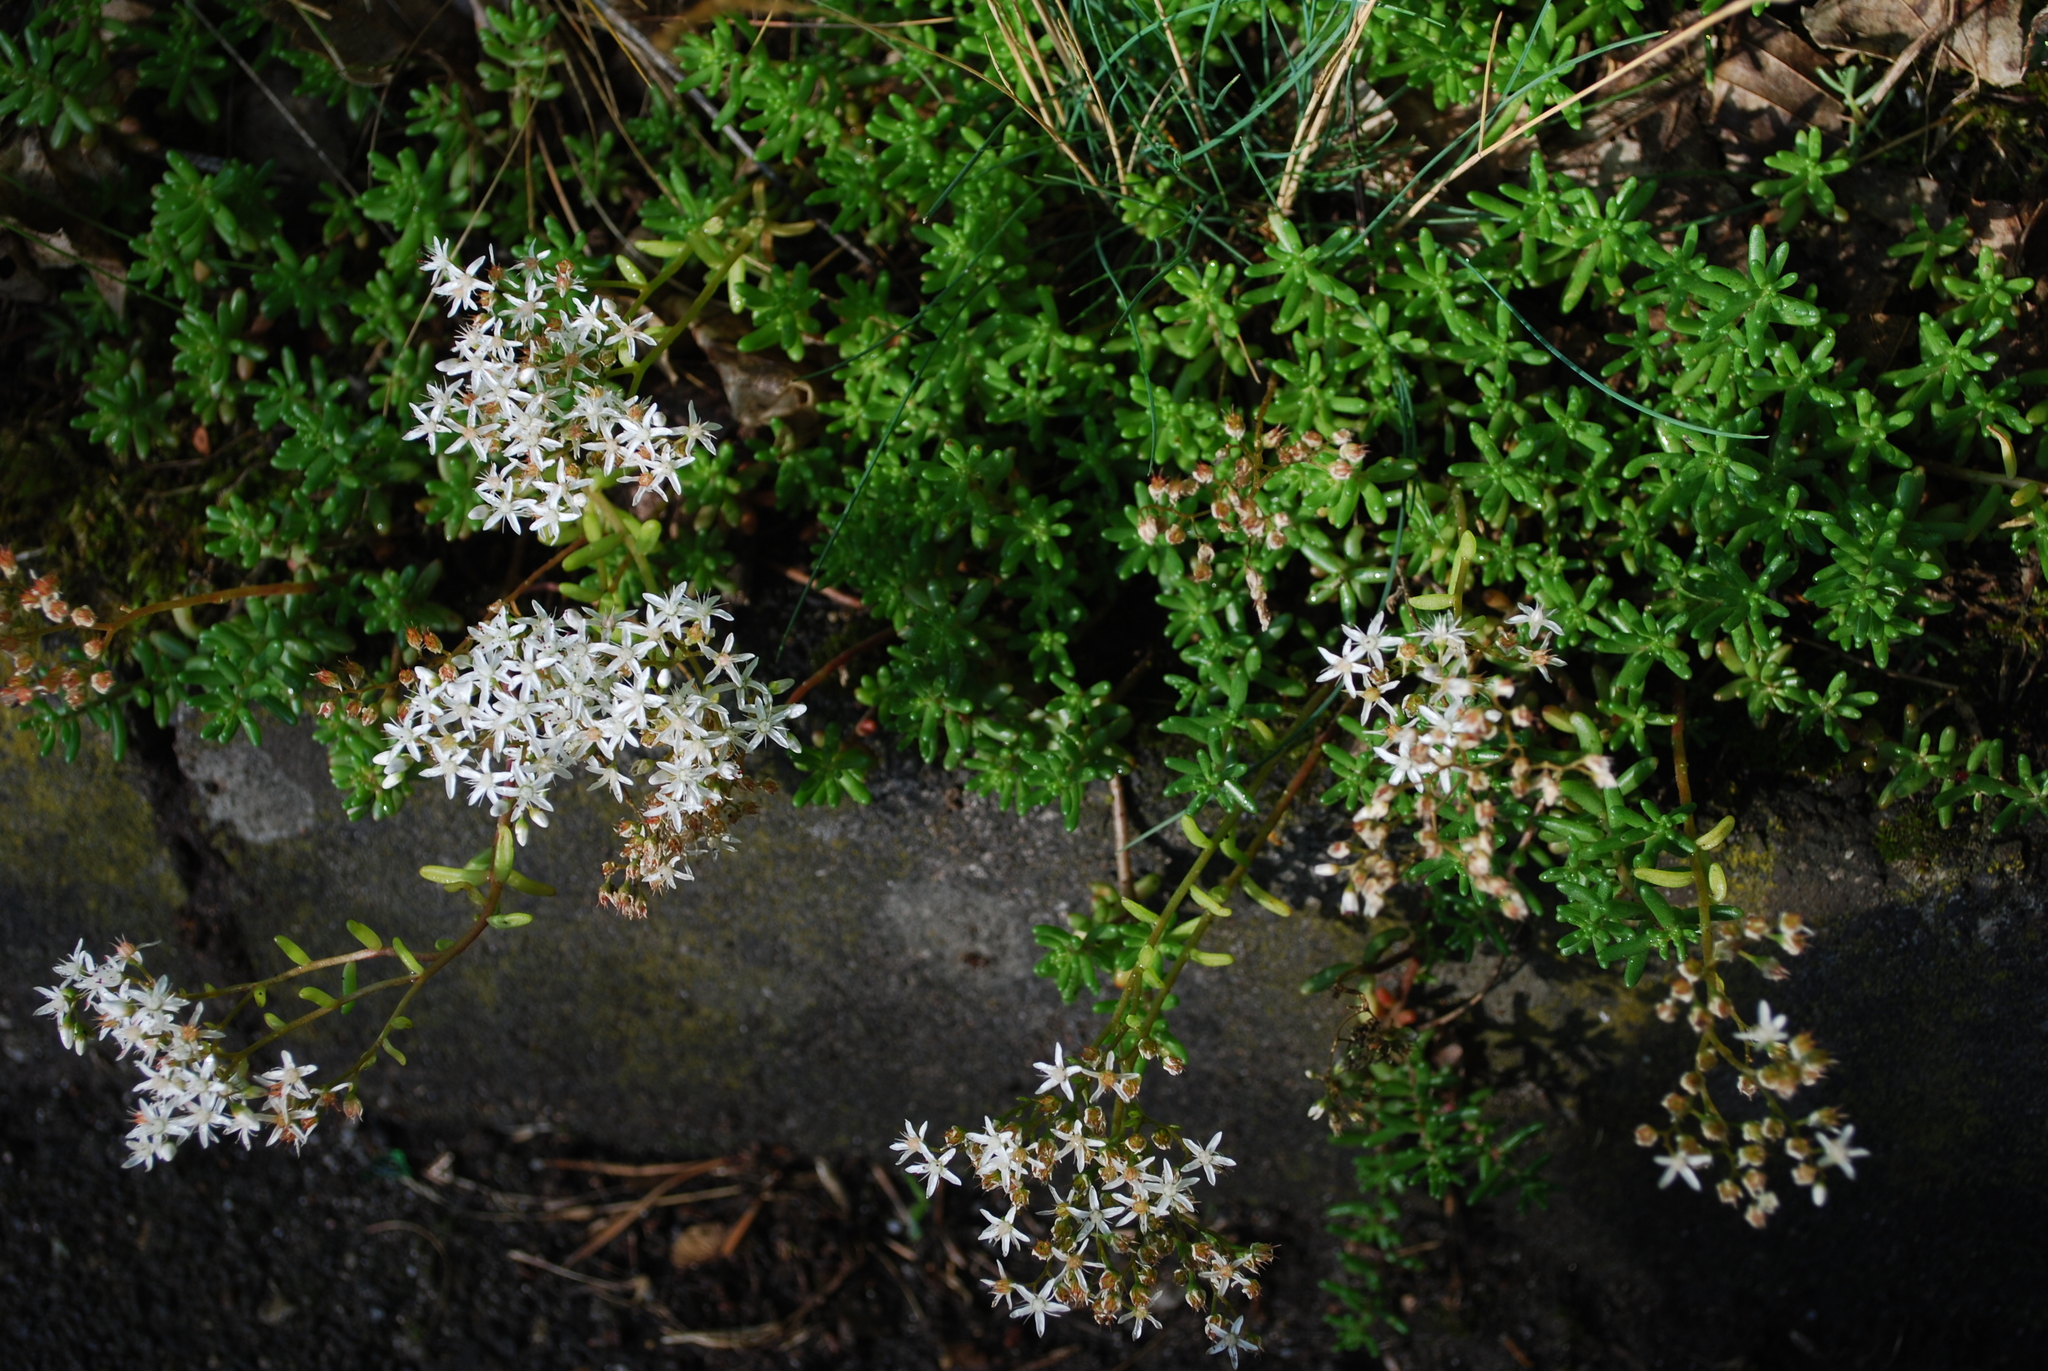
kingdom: Plantae
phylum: Tracheophyta
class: Magnoliopsida
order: Saxifragales
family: Crassulaceae
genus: Sedum
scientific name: Sedum album
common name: White stonecrop
